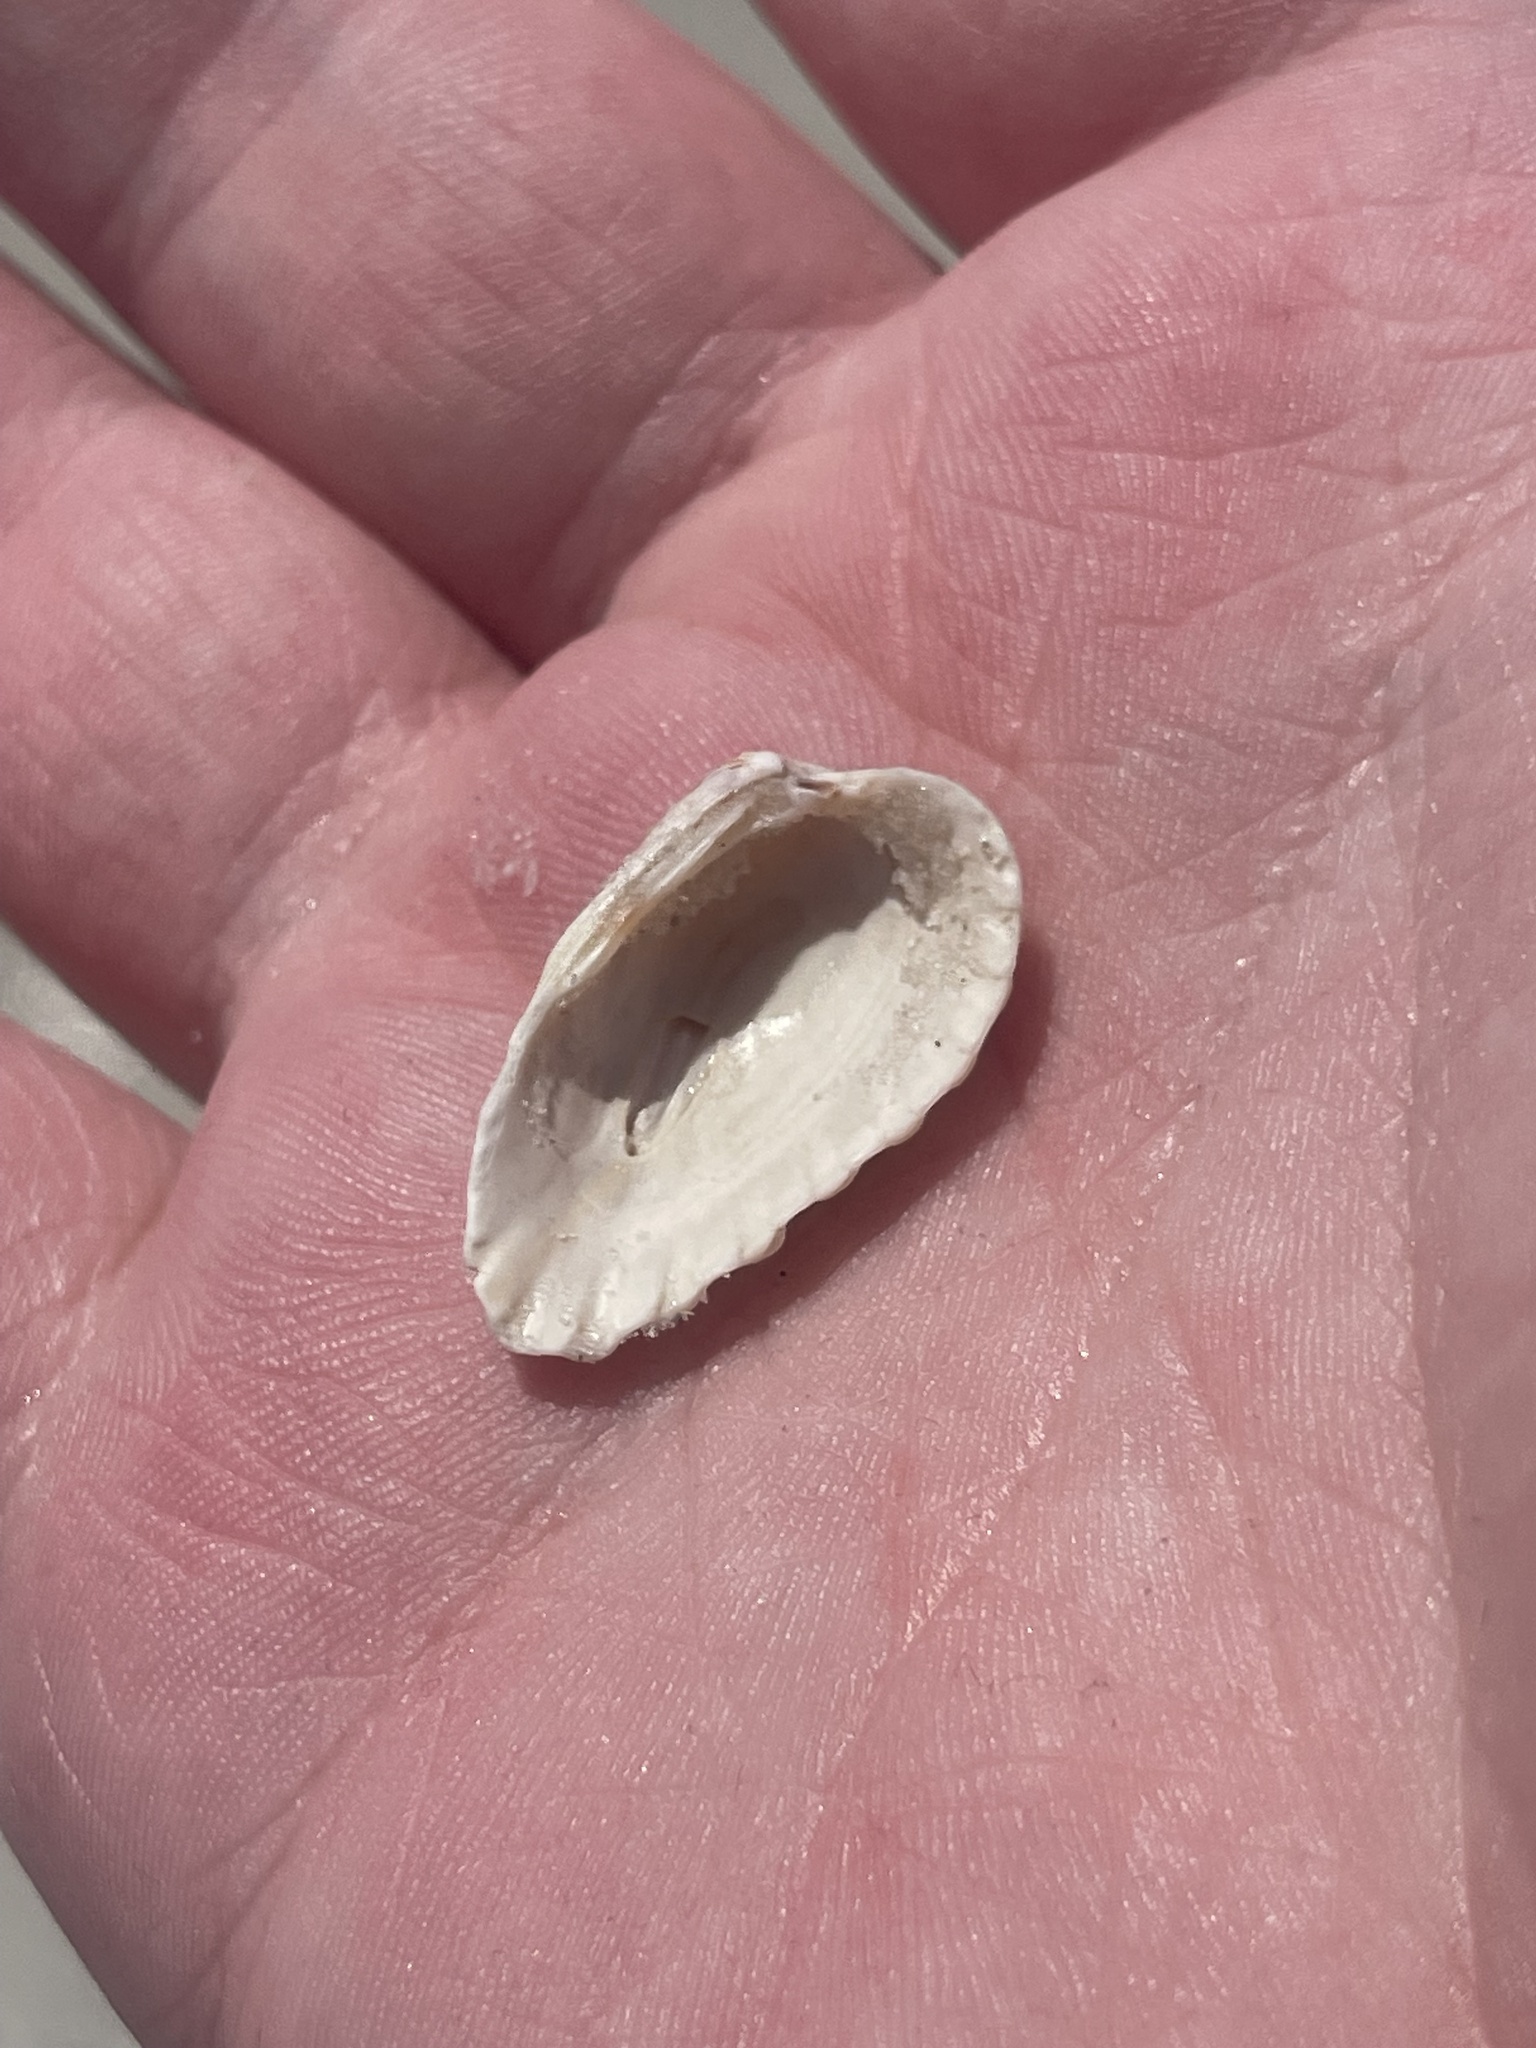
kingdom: Animalia
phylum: Mollusca
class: Bivalvia
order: Carditida
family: Carditidae
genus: Cardites
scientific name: Cardites floridanus
